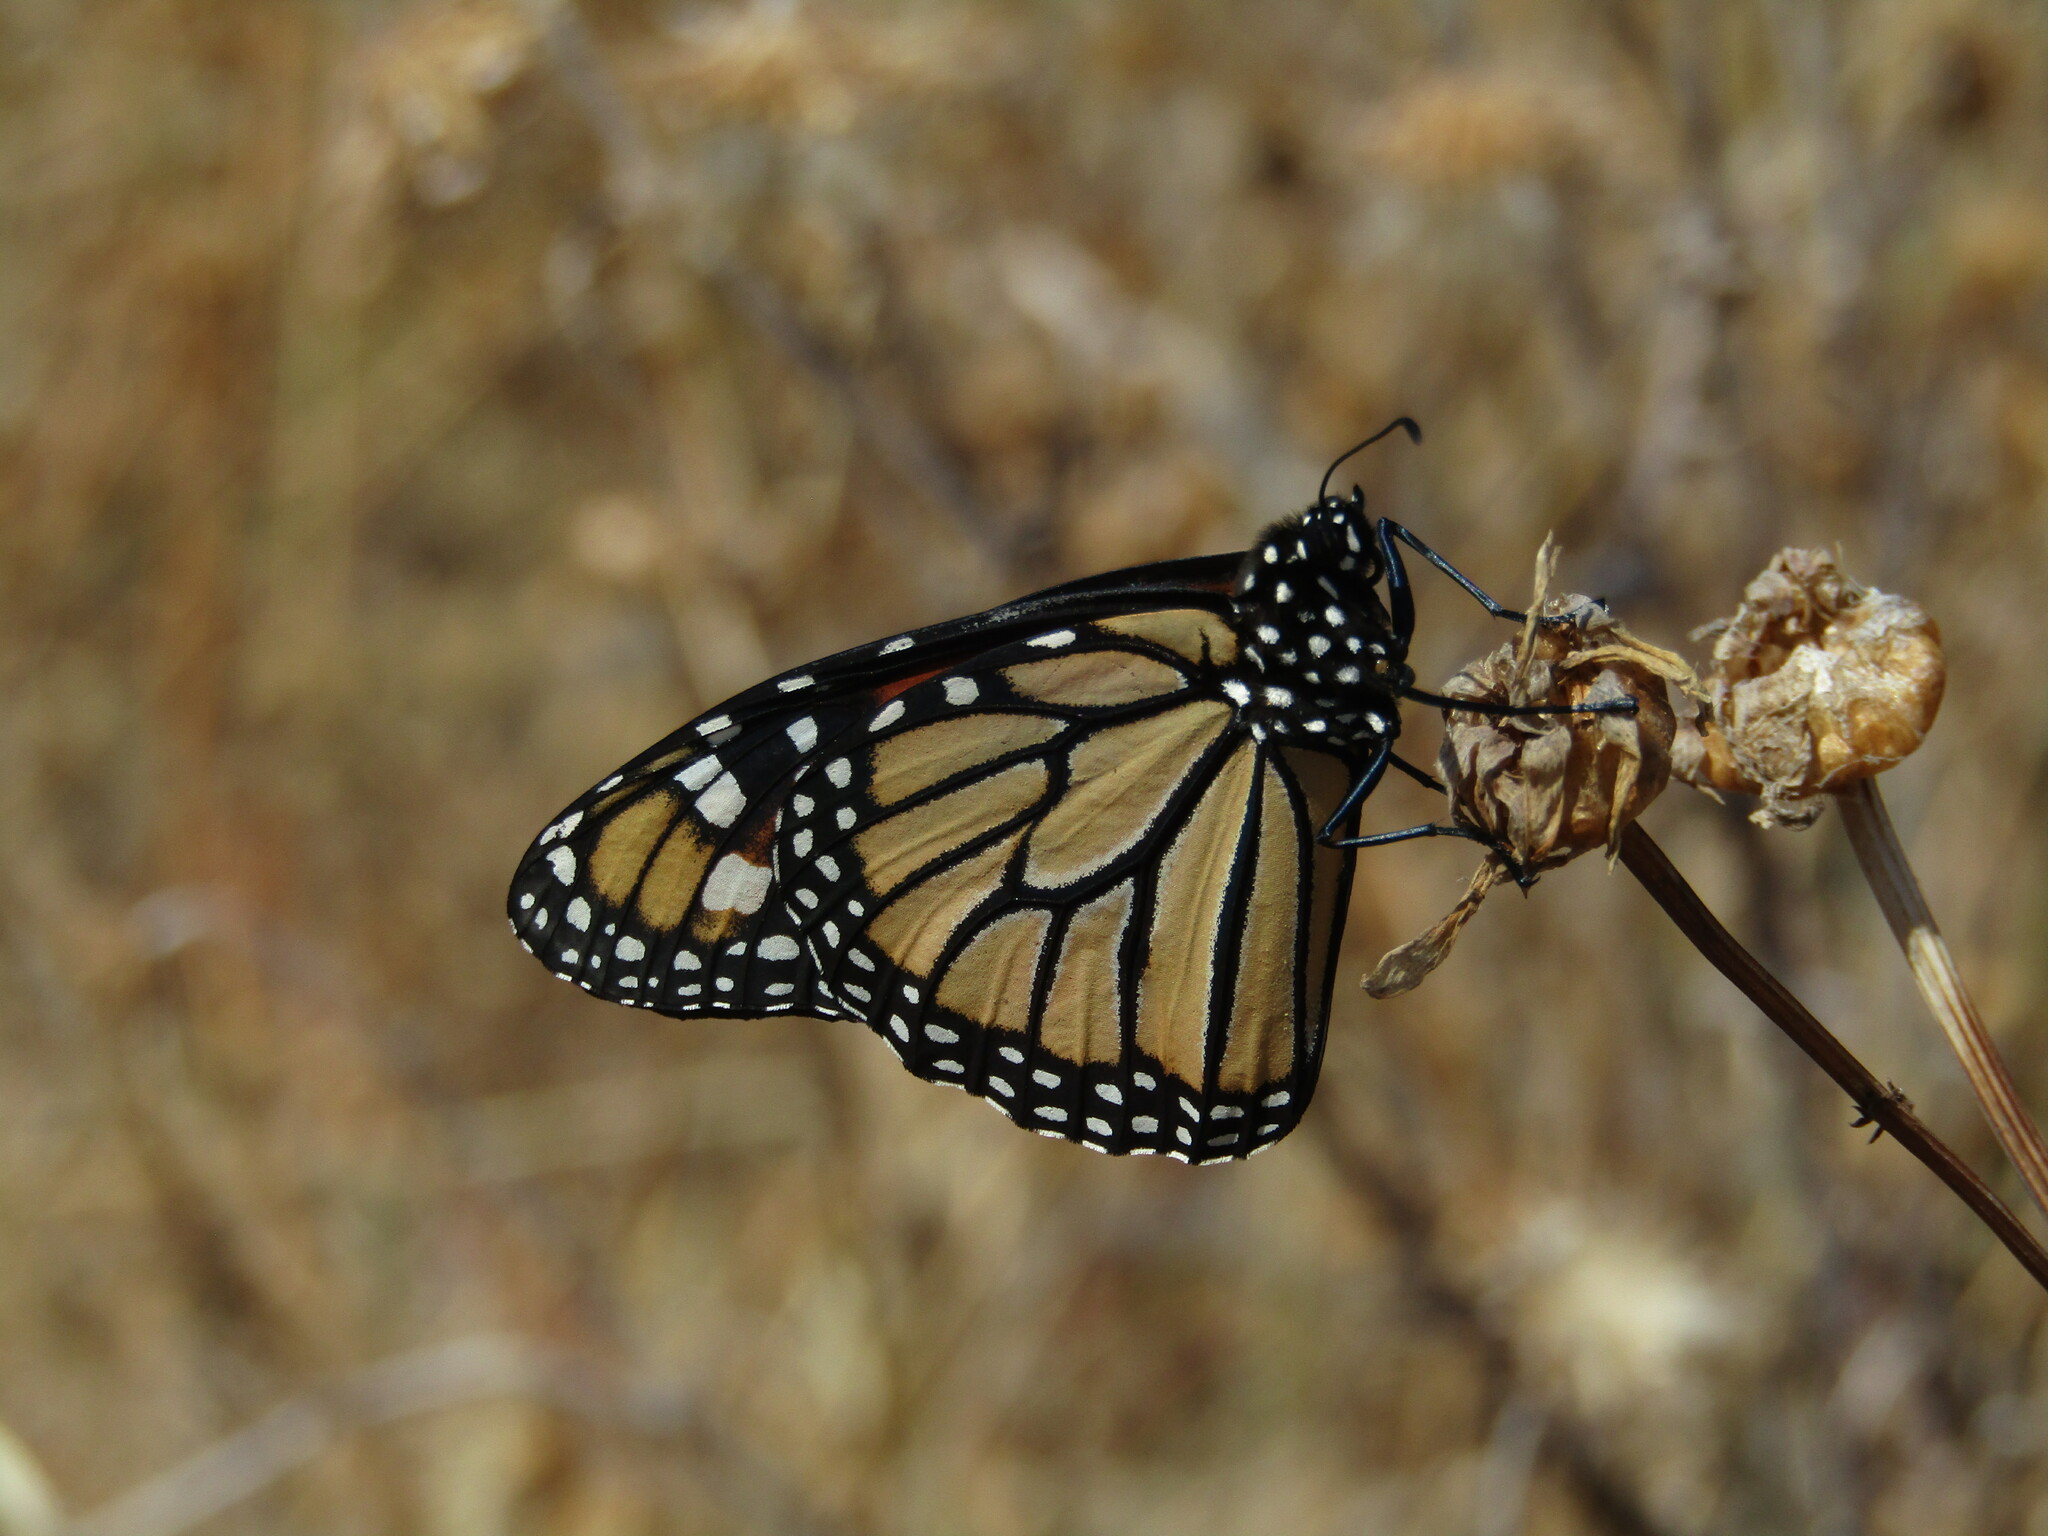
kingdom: Animalia
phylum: Arthropoda
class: Insecta
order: Lepidoptera
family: Nymphalidae
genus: Danaus
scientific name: Danaus plexippus
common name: Monarch
